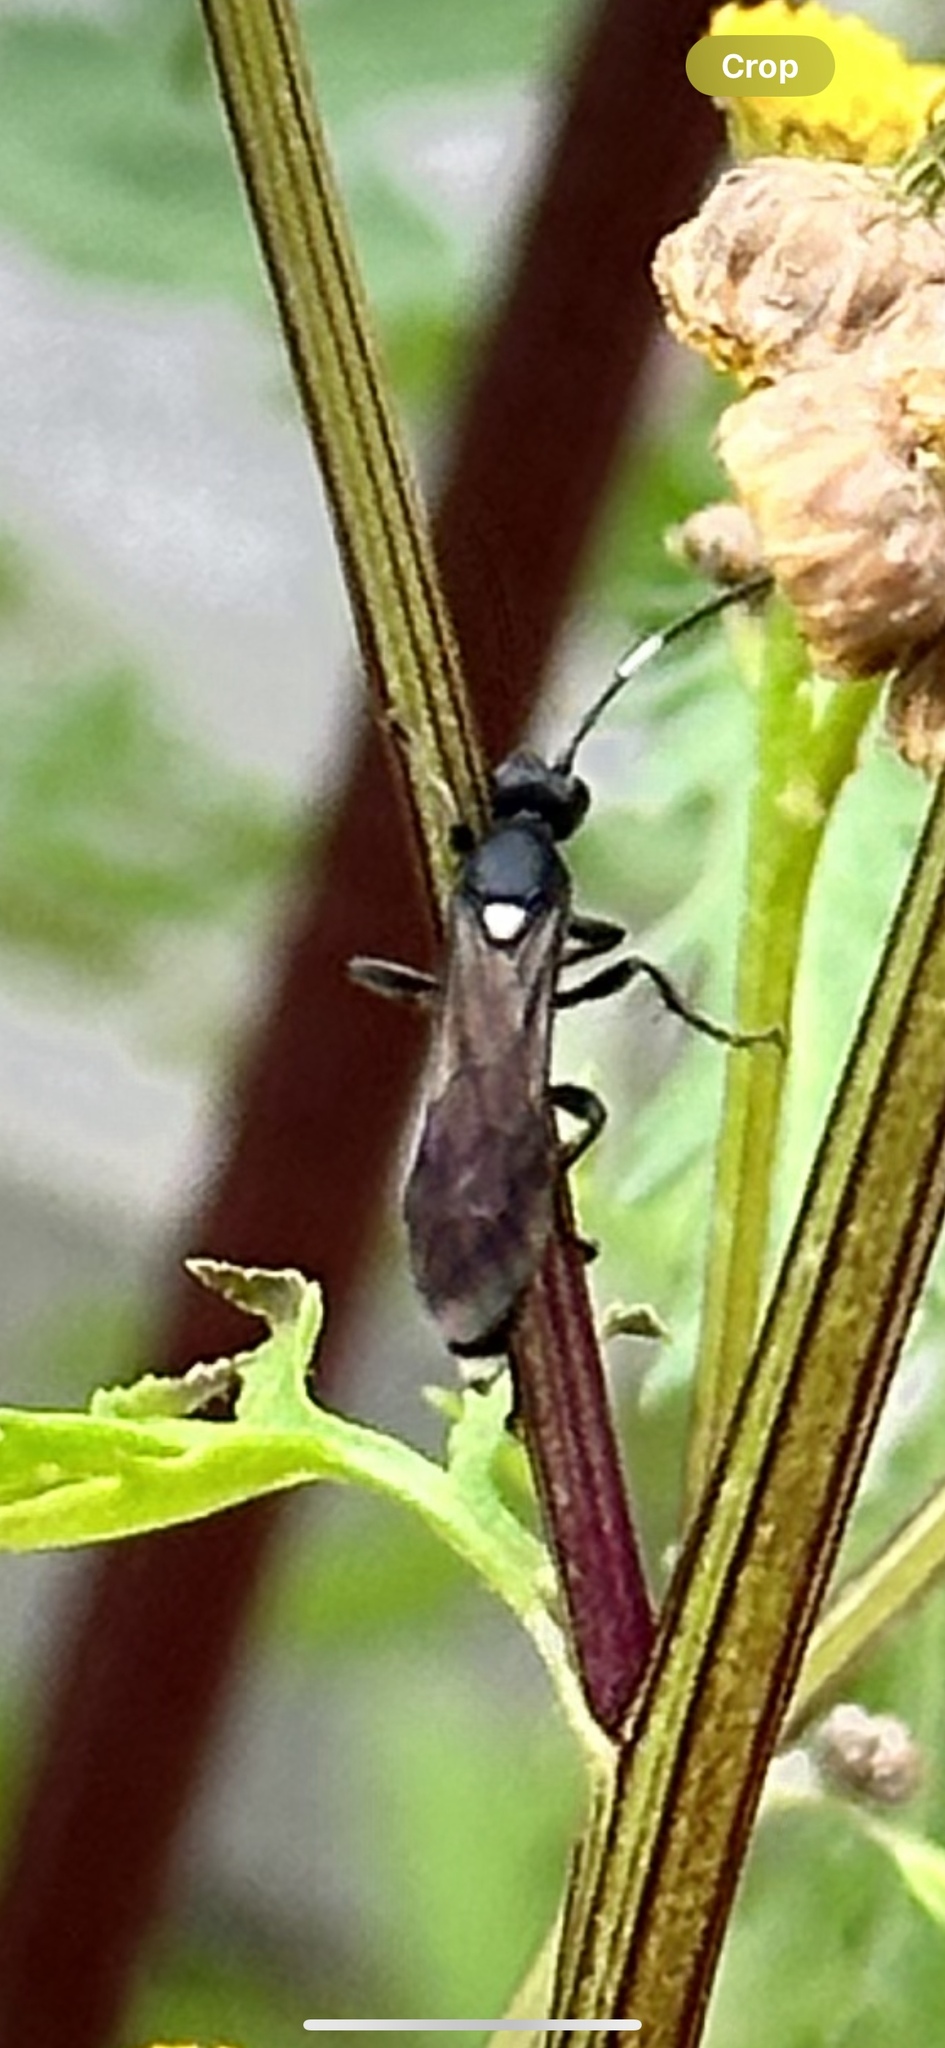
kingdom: Animalia
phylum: Arthropoda
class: Insecta
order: Hymenoptera
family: Ichneumonidae
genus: Vulgichneumon
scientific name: Vulgichneumon brevicinctor
